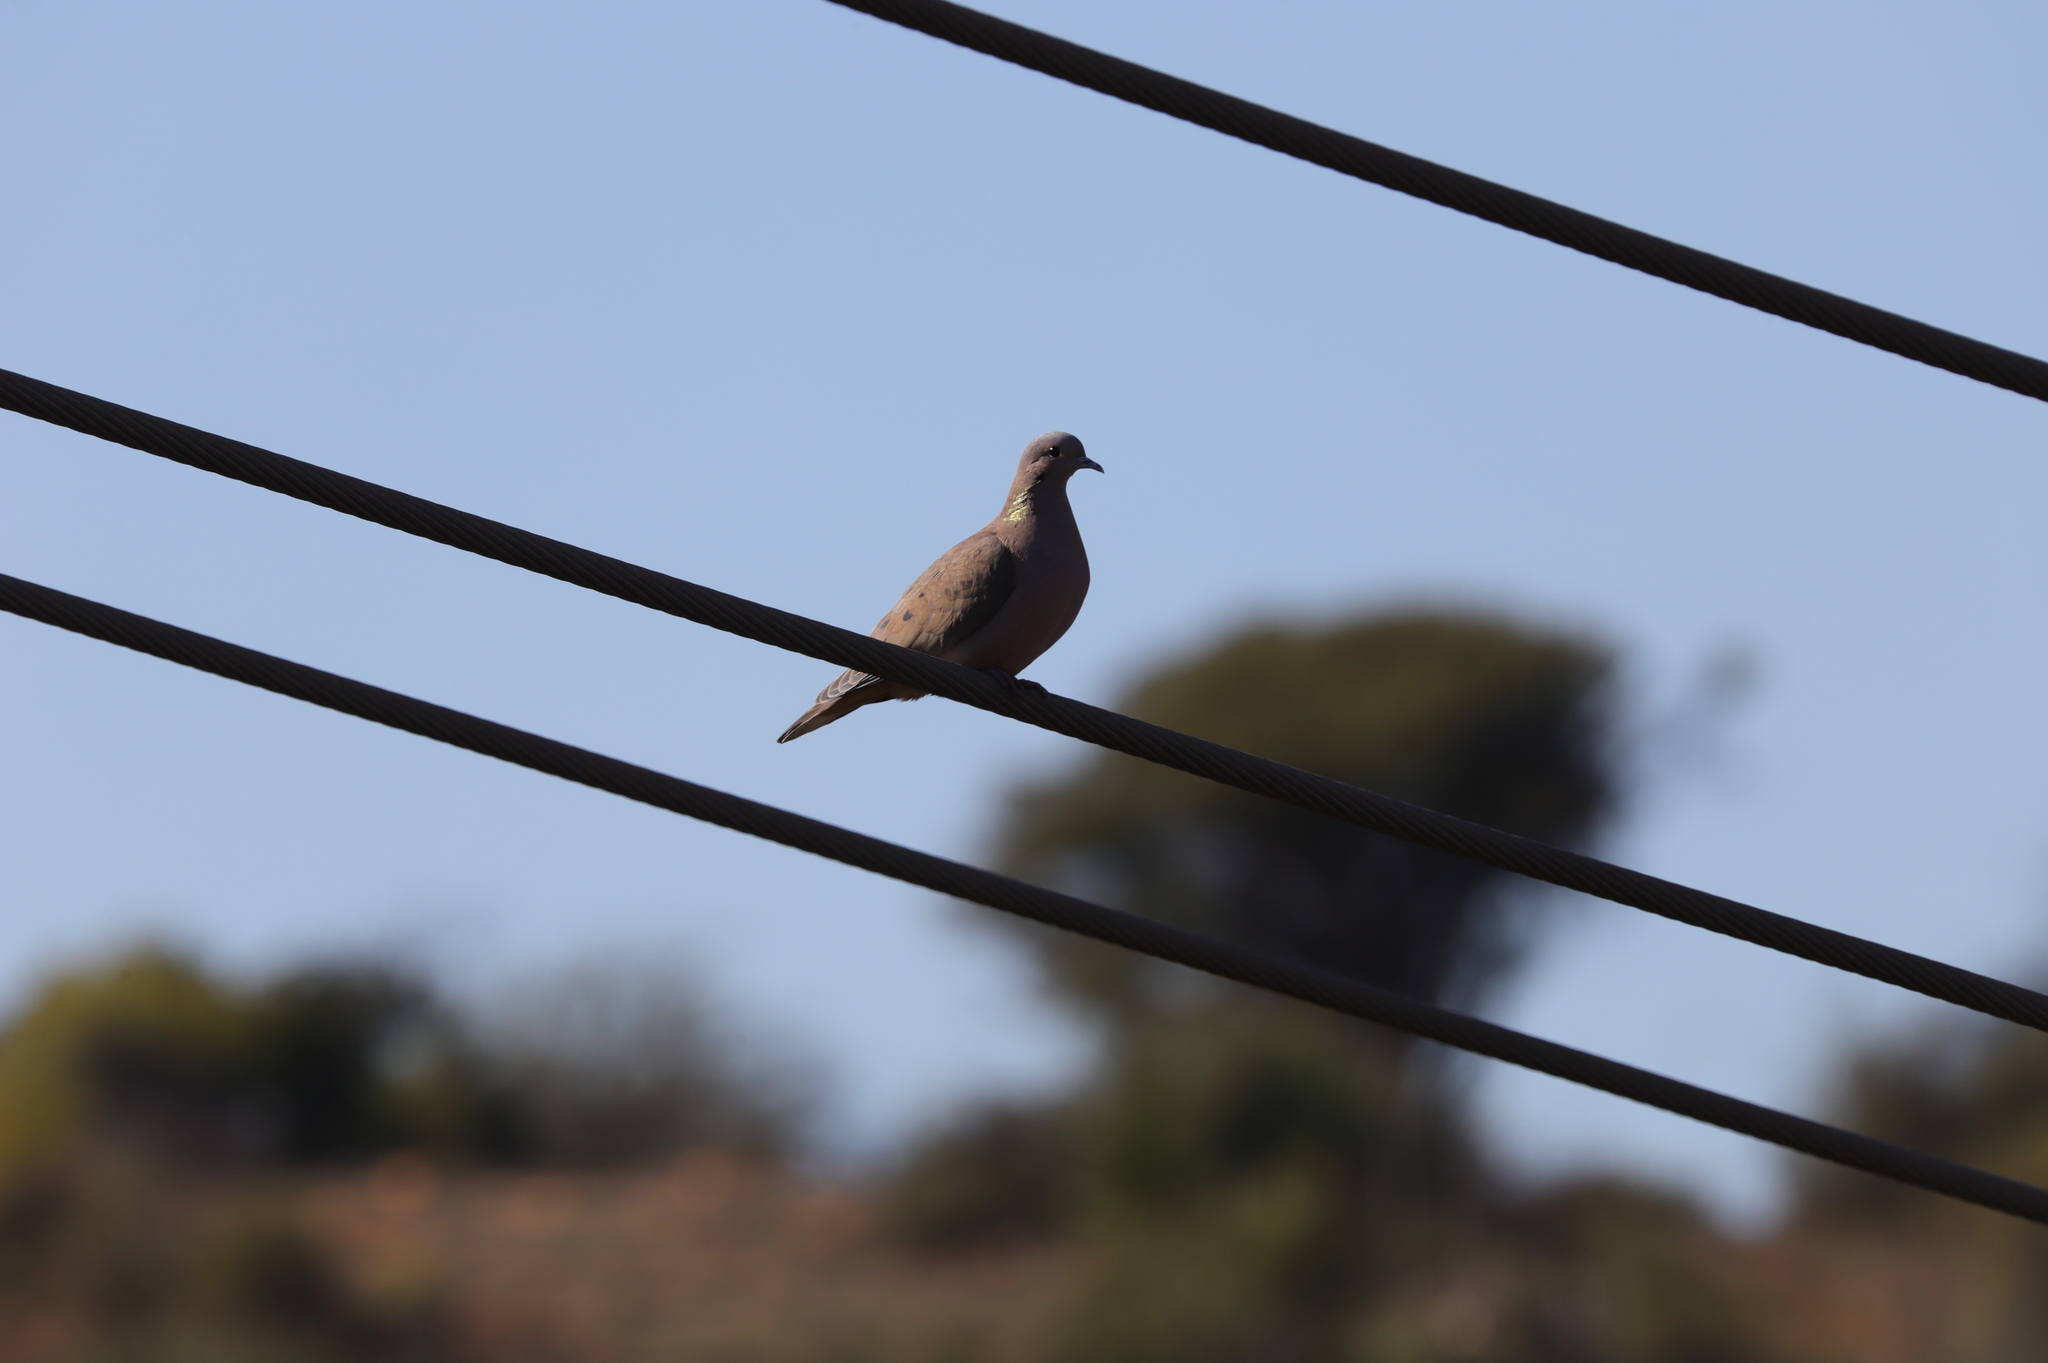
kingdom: Animalia
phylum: Chordata
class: Aves
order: Columbiformes
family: Columbidae
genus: Zenaida
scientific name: Zenaida auriculata
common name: Eared dove
